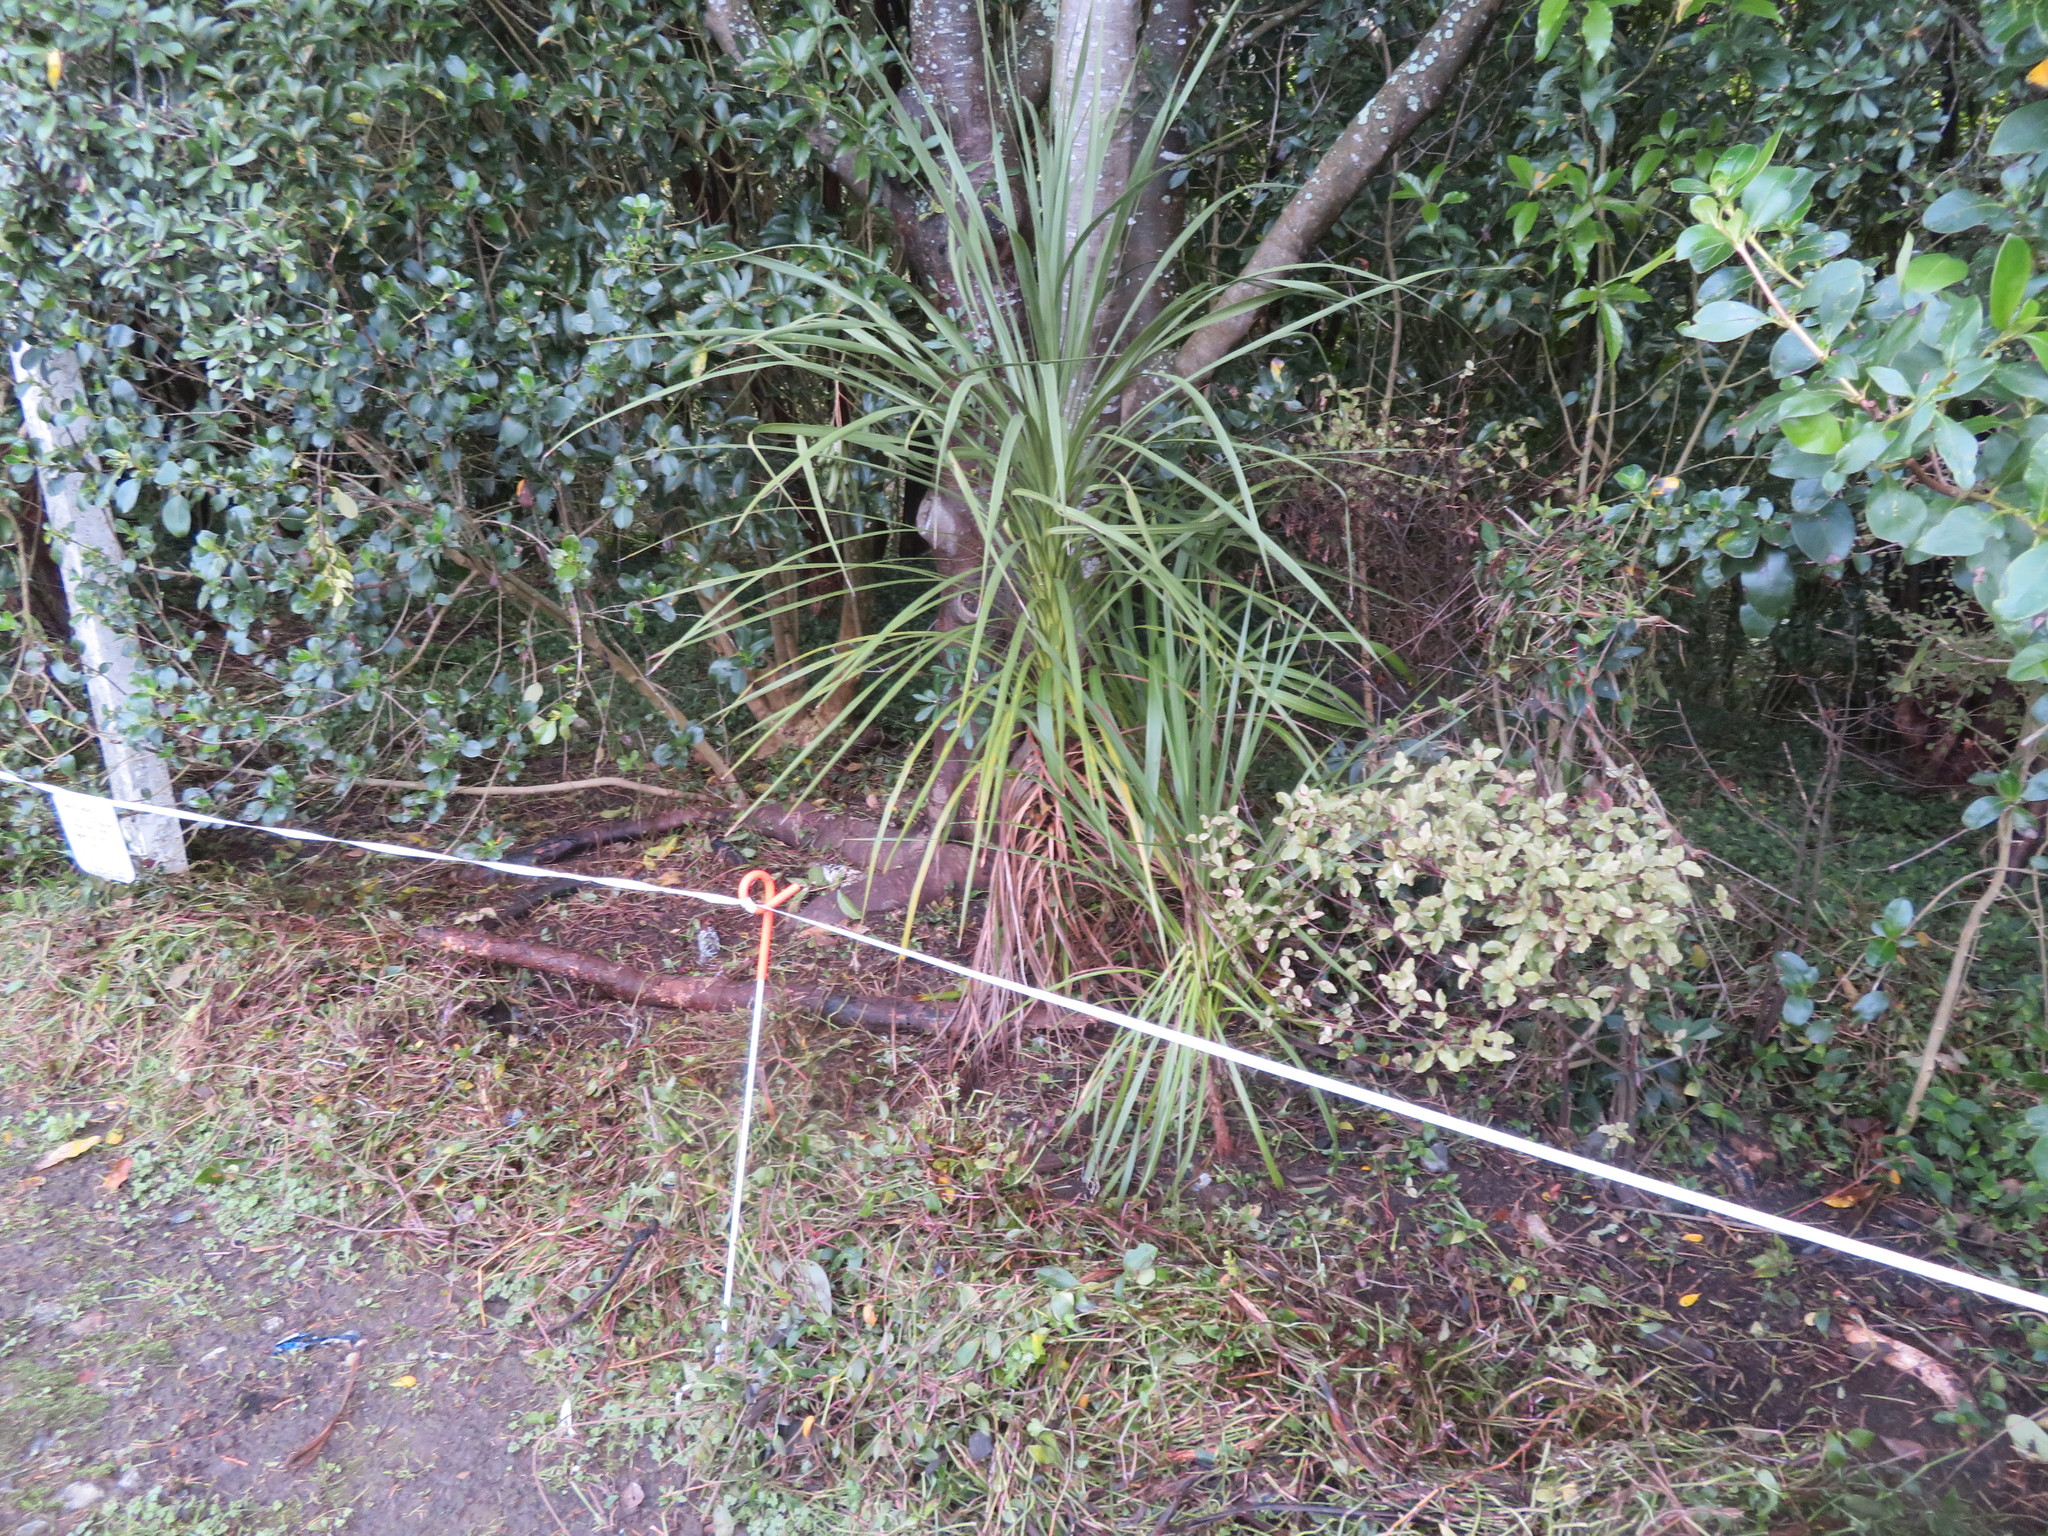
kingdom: Plantae
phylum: Tracheophyta
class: Magnoliopsida
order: Ericales
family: Primulaceae
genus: Myrsine
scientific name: Myrsine australis
